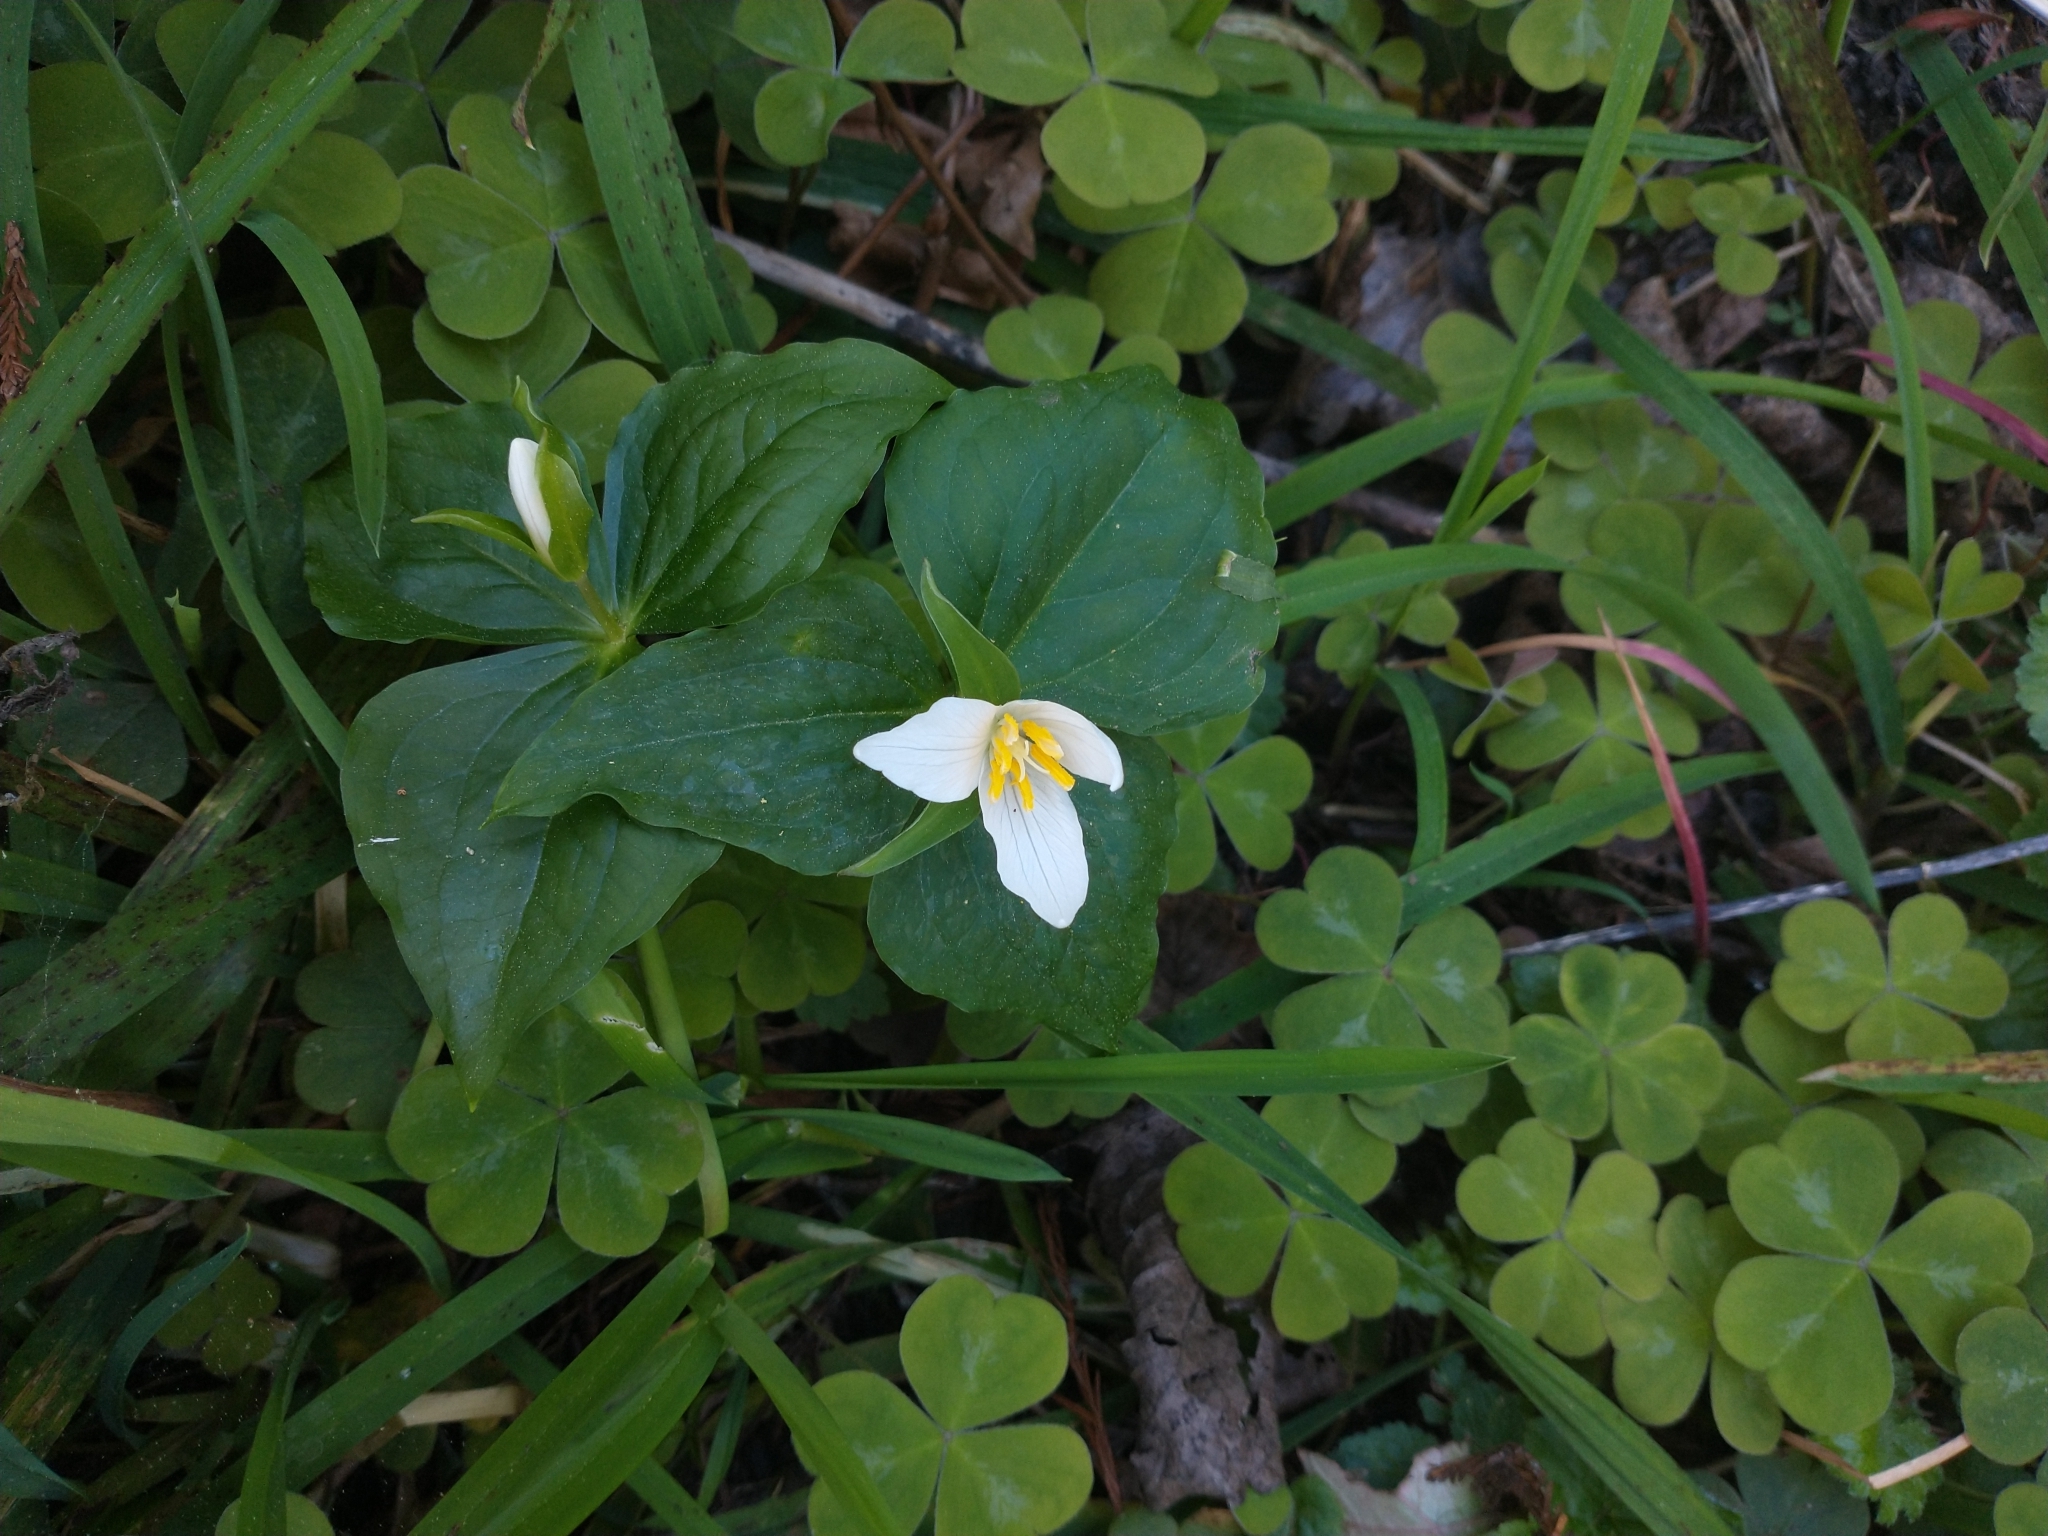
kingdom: Plantae
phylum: Tracheophyta
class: Liliopsida
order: Liliales
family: Melanthiaceae
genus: Trillium
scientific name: Trillium ovatum
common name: Pacific trillium
